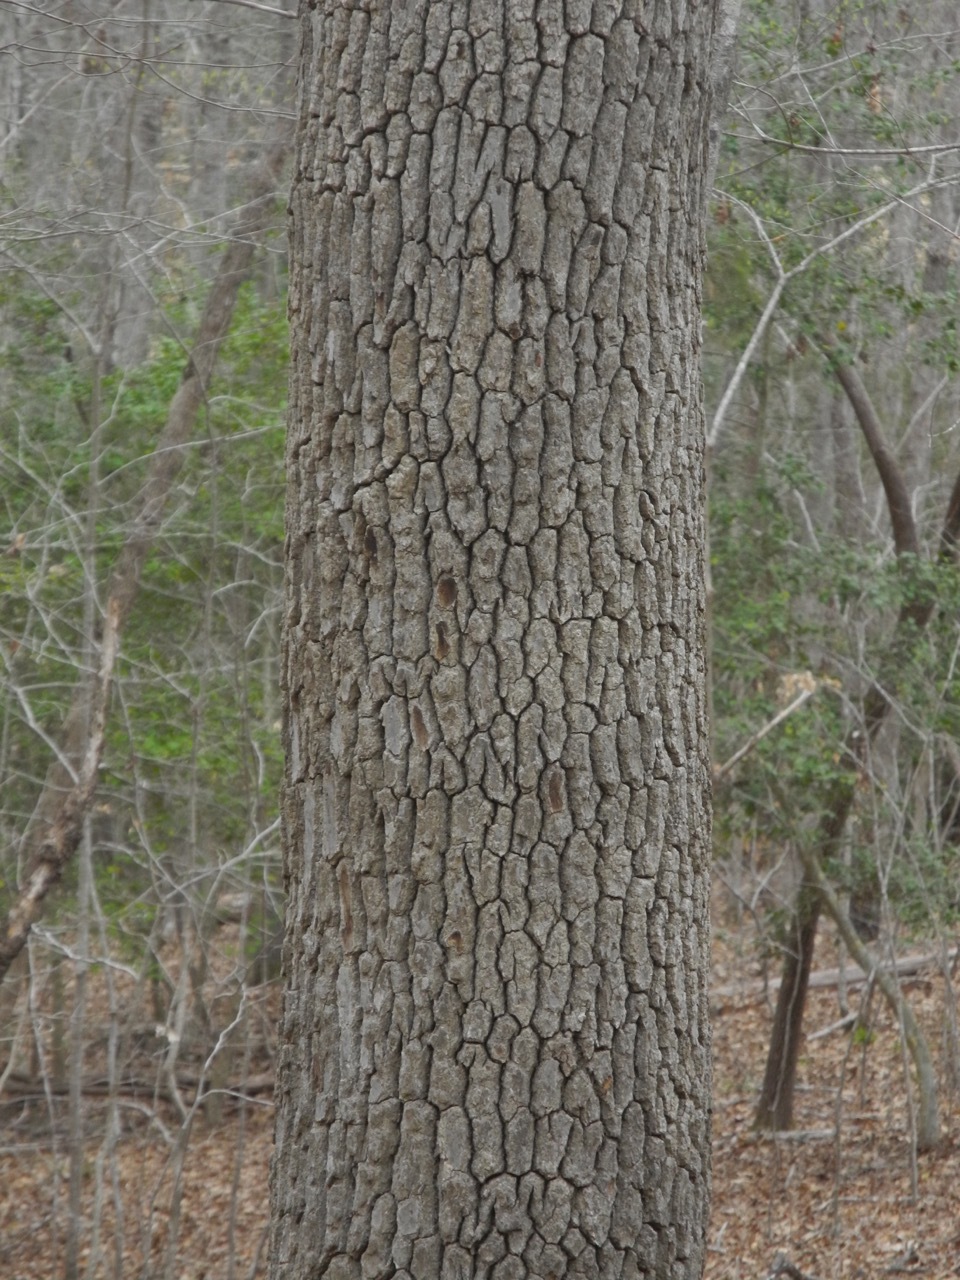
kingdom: Plantae
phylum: Tracheophyta
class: Magnoliopsida
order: Ericales
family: Ebenaceae
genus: Diospyros
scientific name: Diospyros virginiana
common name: Persimmon
